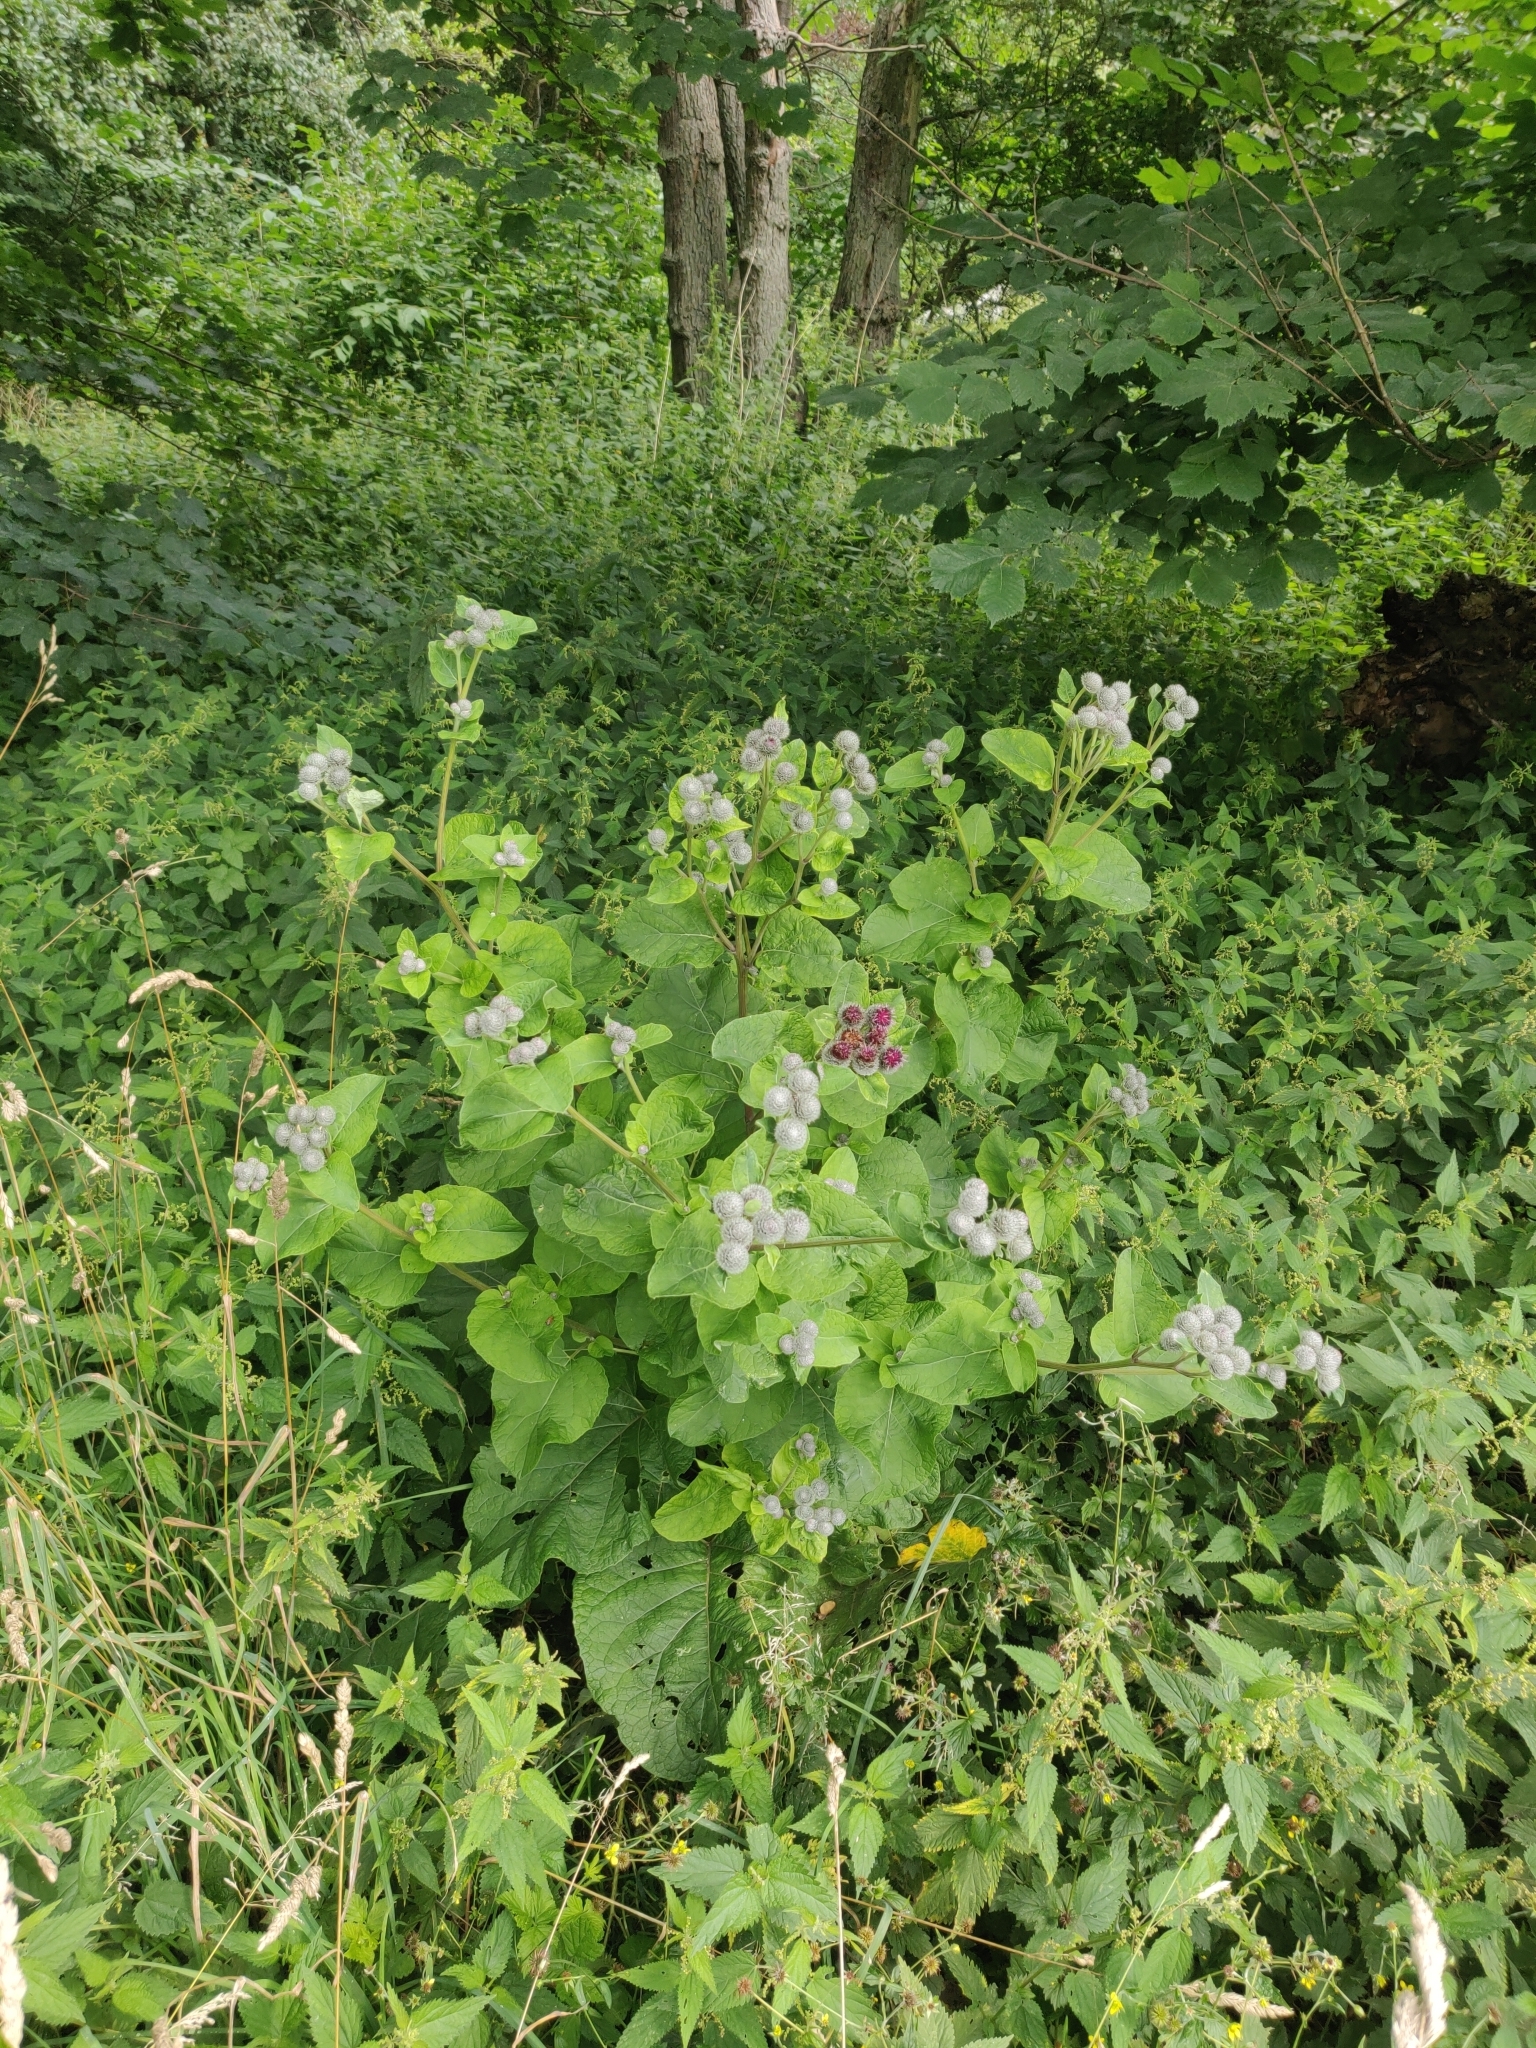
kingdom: Plantae
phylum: Tracheophyta
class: Magnoliopsida
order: Asterales
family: Asteraceae
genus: Arctium
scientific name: Arctium tomentosum
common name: Woolly burdock
